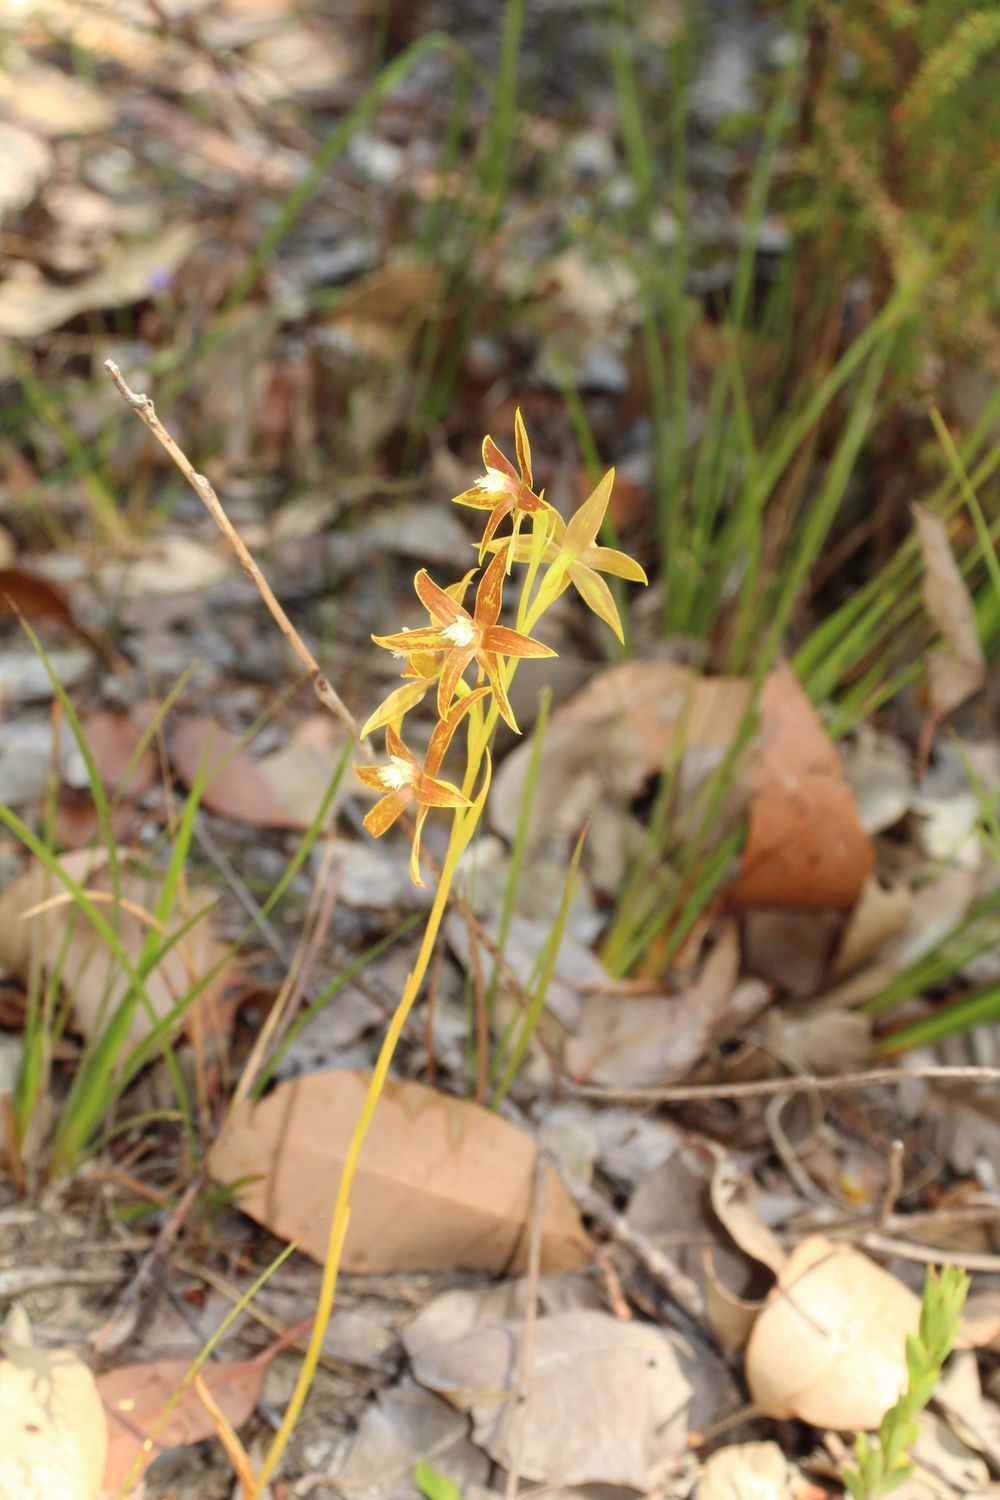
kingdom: Plantae
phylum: Tracheophyta
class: Liliopsida
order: Asparagales
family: Orchidaceae
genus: Thelymitra
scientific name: Thelymitra fuscolutea
